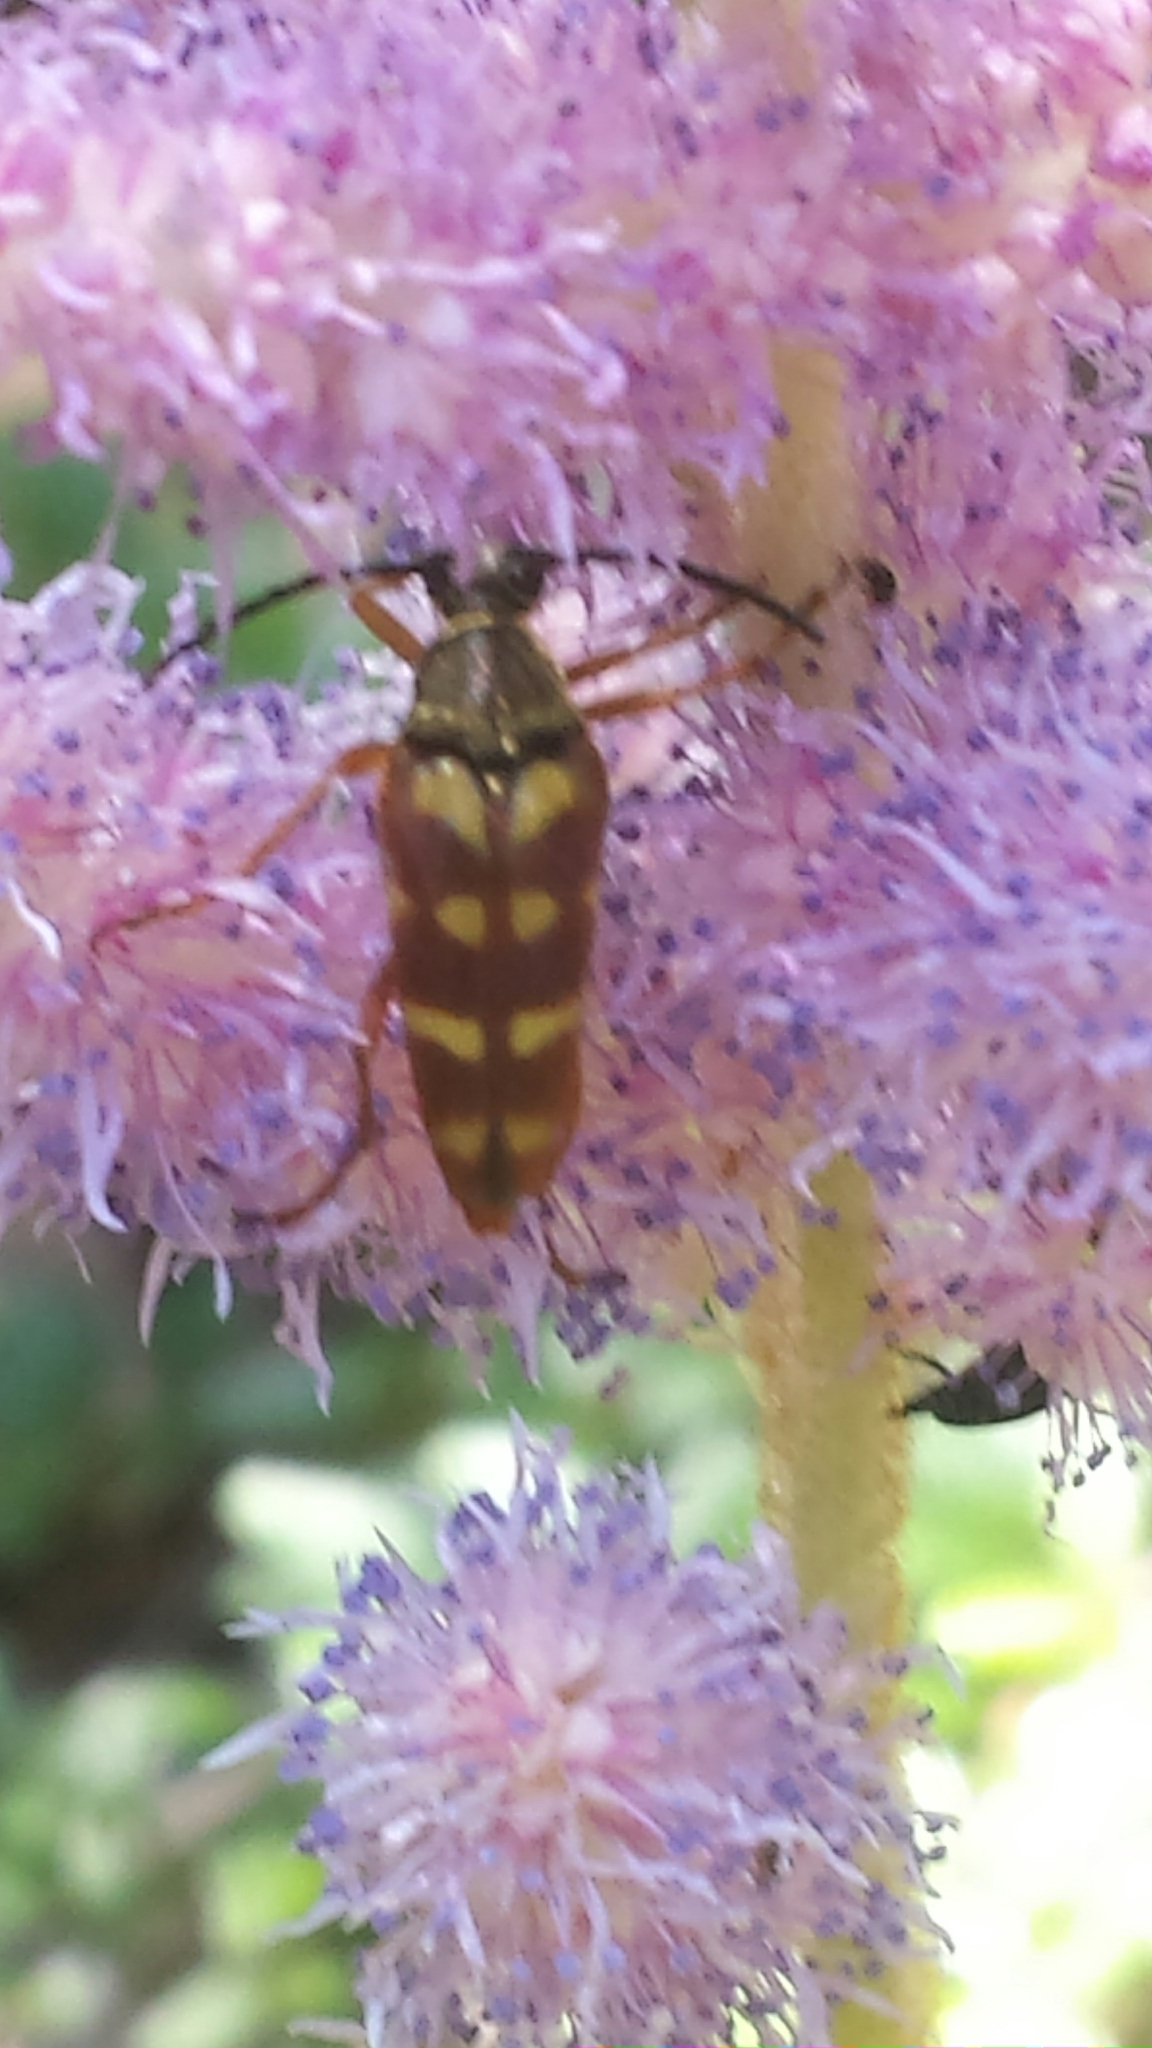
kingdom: Animalia
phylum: Arthropoda
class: Insecta
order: Coleoptera
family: Cerambycidae
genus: Typocerus
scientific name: Typocerus velutinus
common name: Banded longhorn beetle
